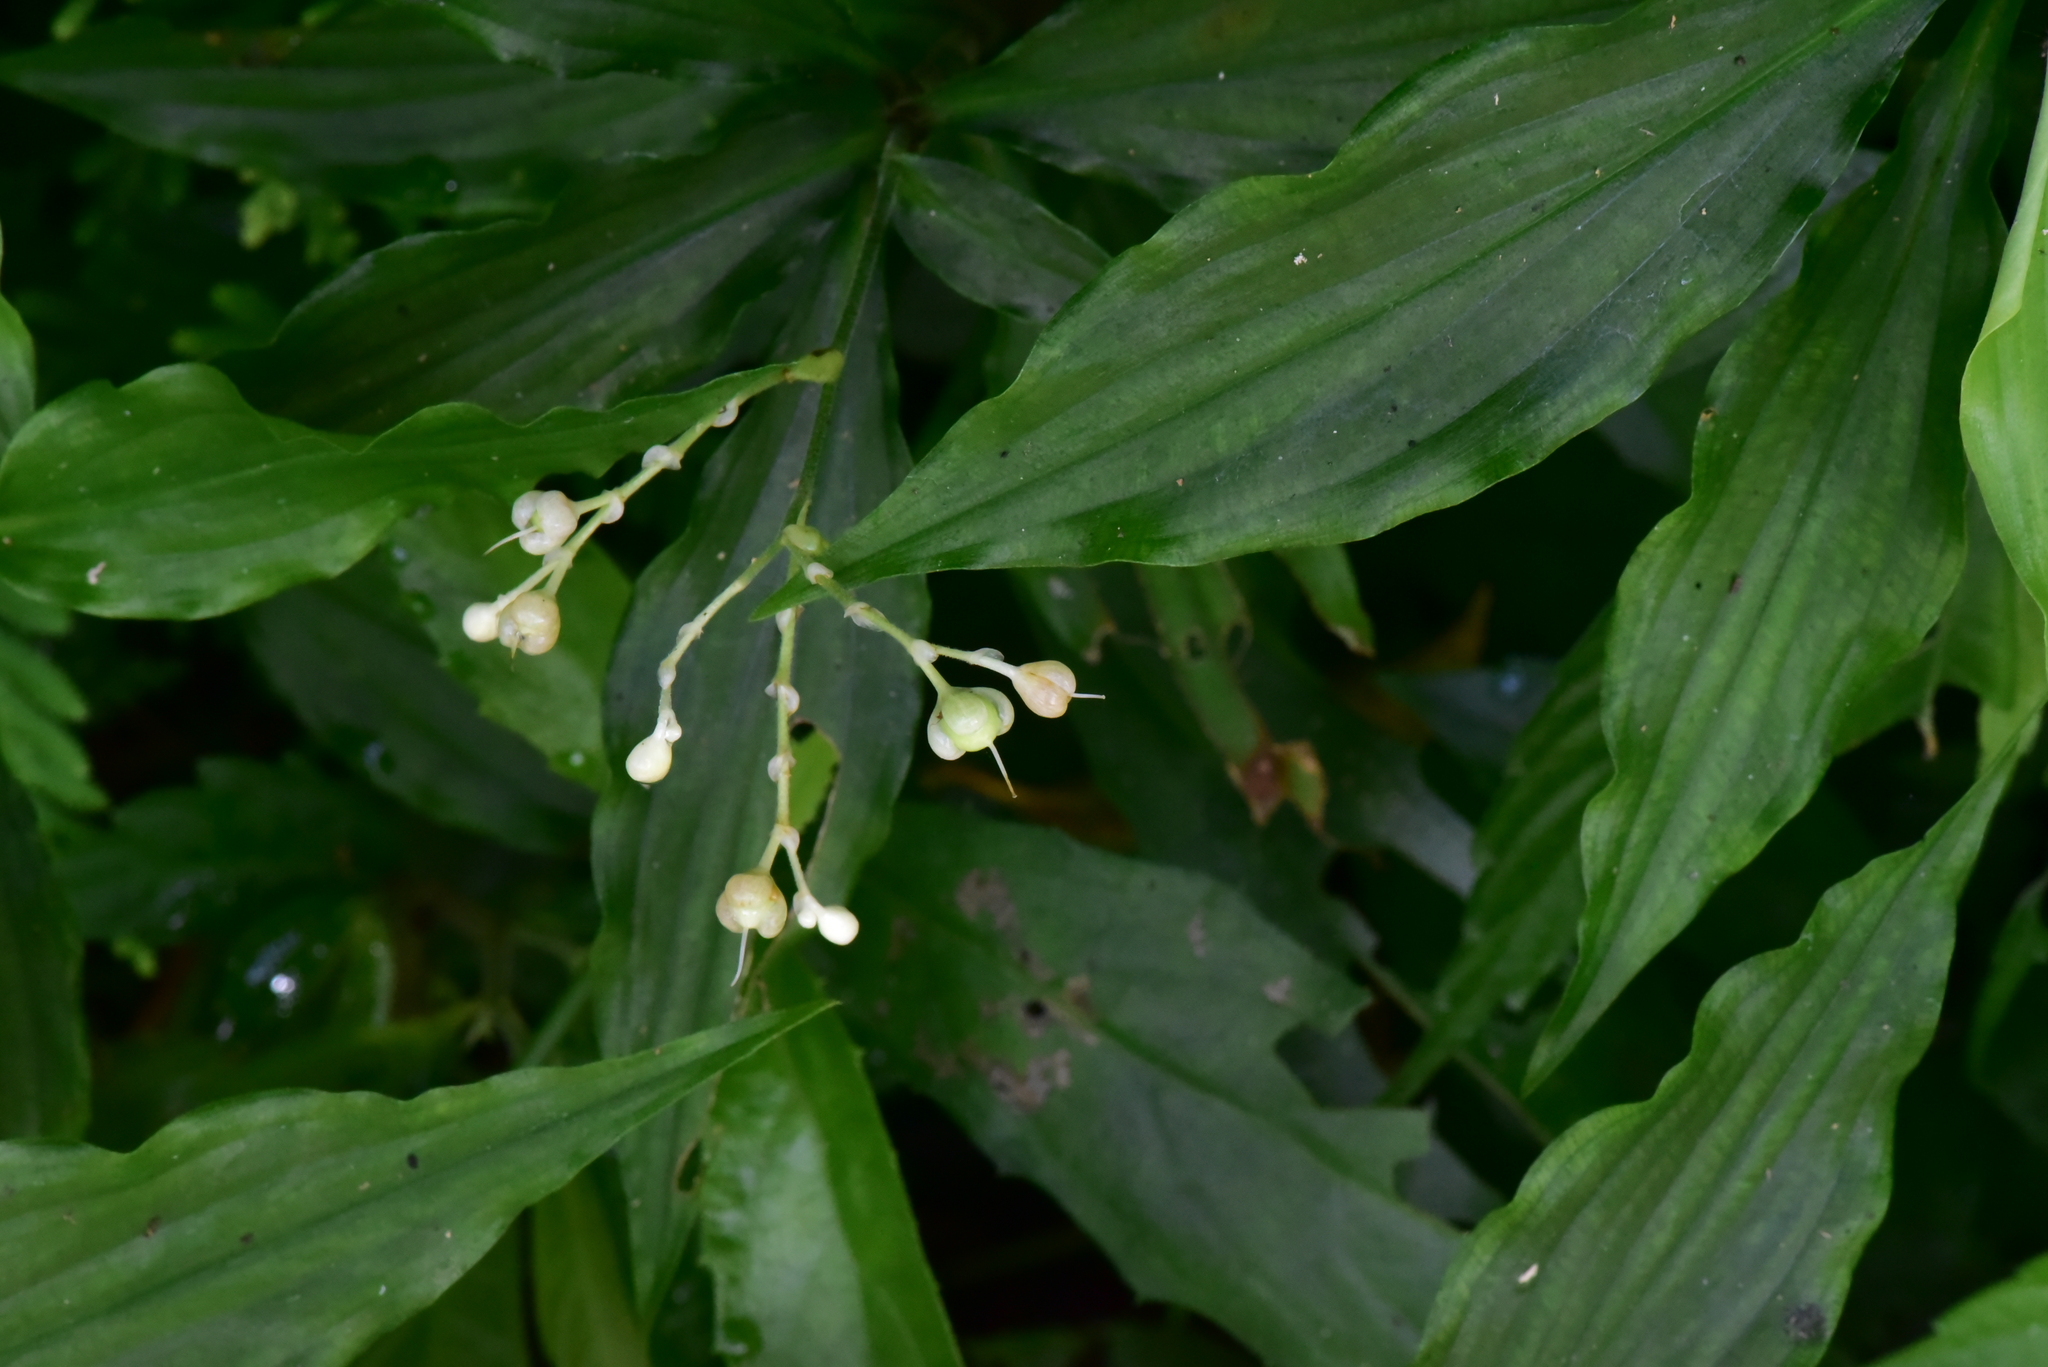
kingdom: Plantae
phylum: Tracheophyta
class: Liliopsida
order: Commelinales
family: Commelinaceae
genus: Pollia
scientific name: Pollia miranda
